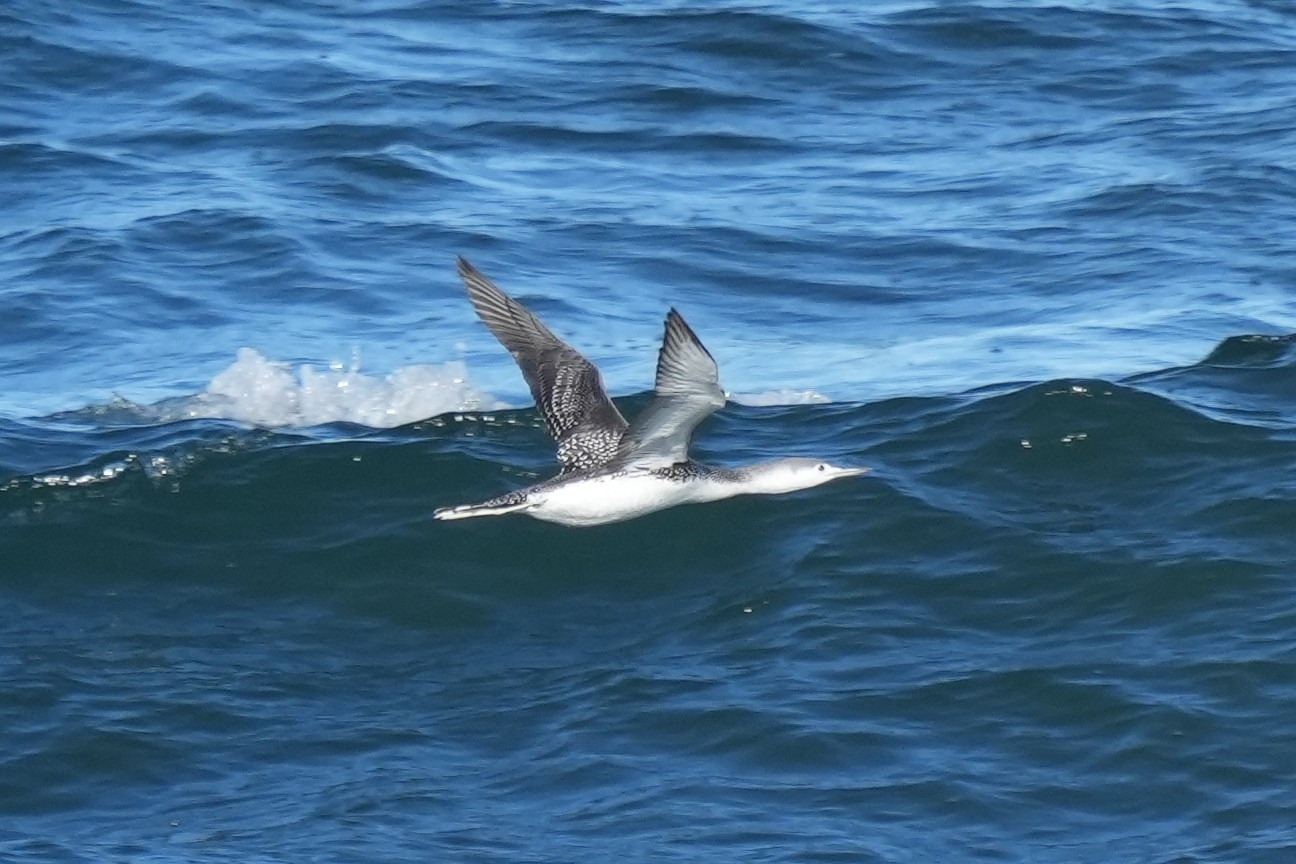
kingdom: Animalia
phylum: Chordata
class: Aves
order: Gaviiformes
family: Gaviidae
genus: Gavia
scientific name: Gavia stellata
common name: Red-throated loon
